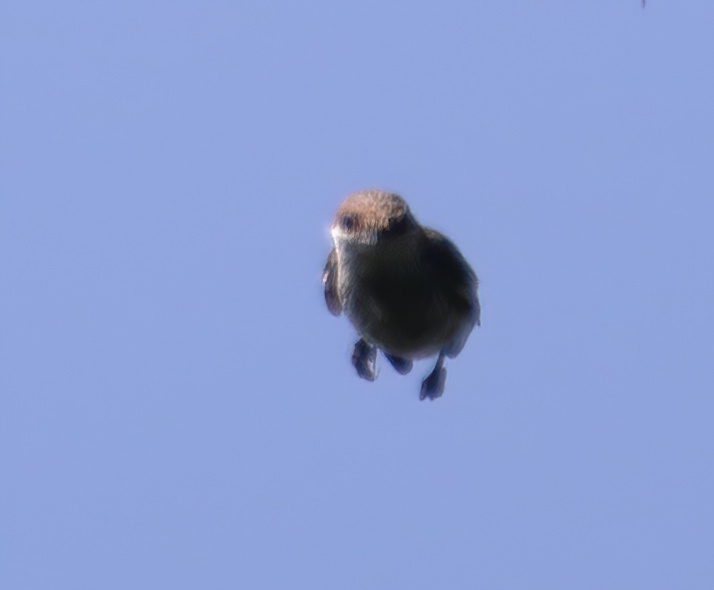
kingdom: Animalia
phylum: Chordata
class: Aves
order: Passeriformes
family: Sittidae
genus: Sitta
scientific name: Sitta pusilla
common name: Brown-headed nuthatch
